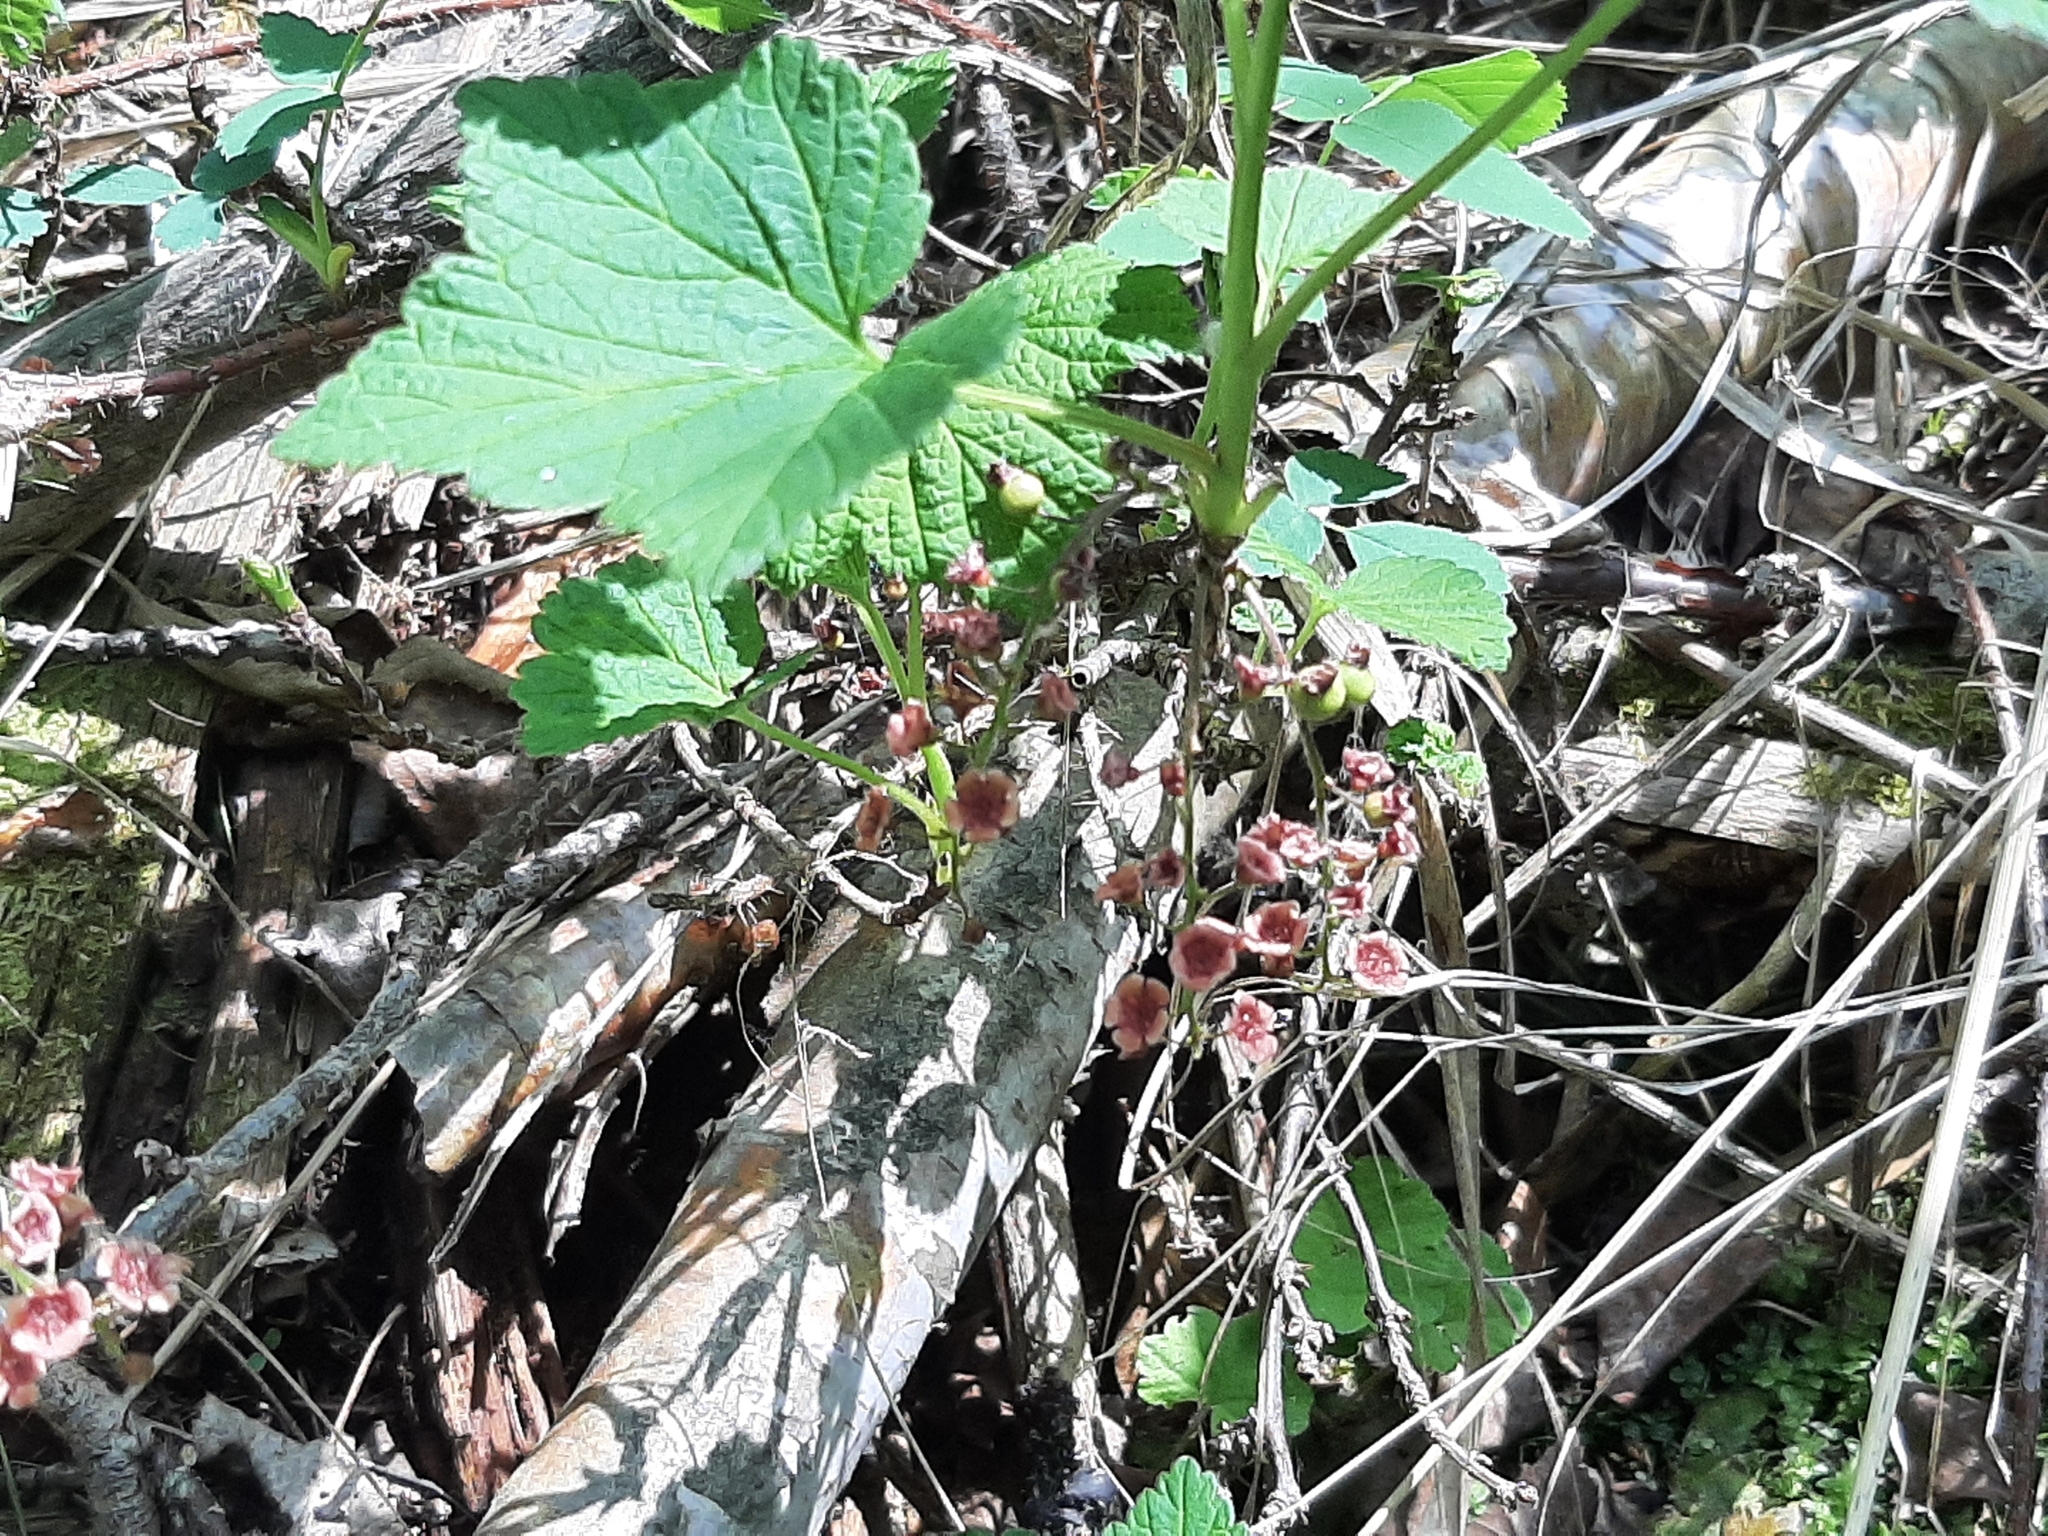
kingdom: Plantae
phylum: Tracheophyta
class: Magnoliopsida
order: Saxifragales
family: Grossulariaceae
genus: Ribes
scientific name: Ribes triste
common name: Swamp red currant
